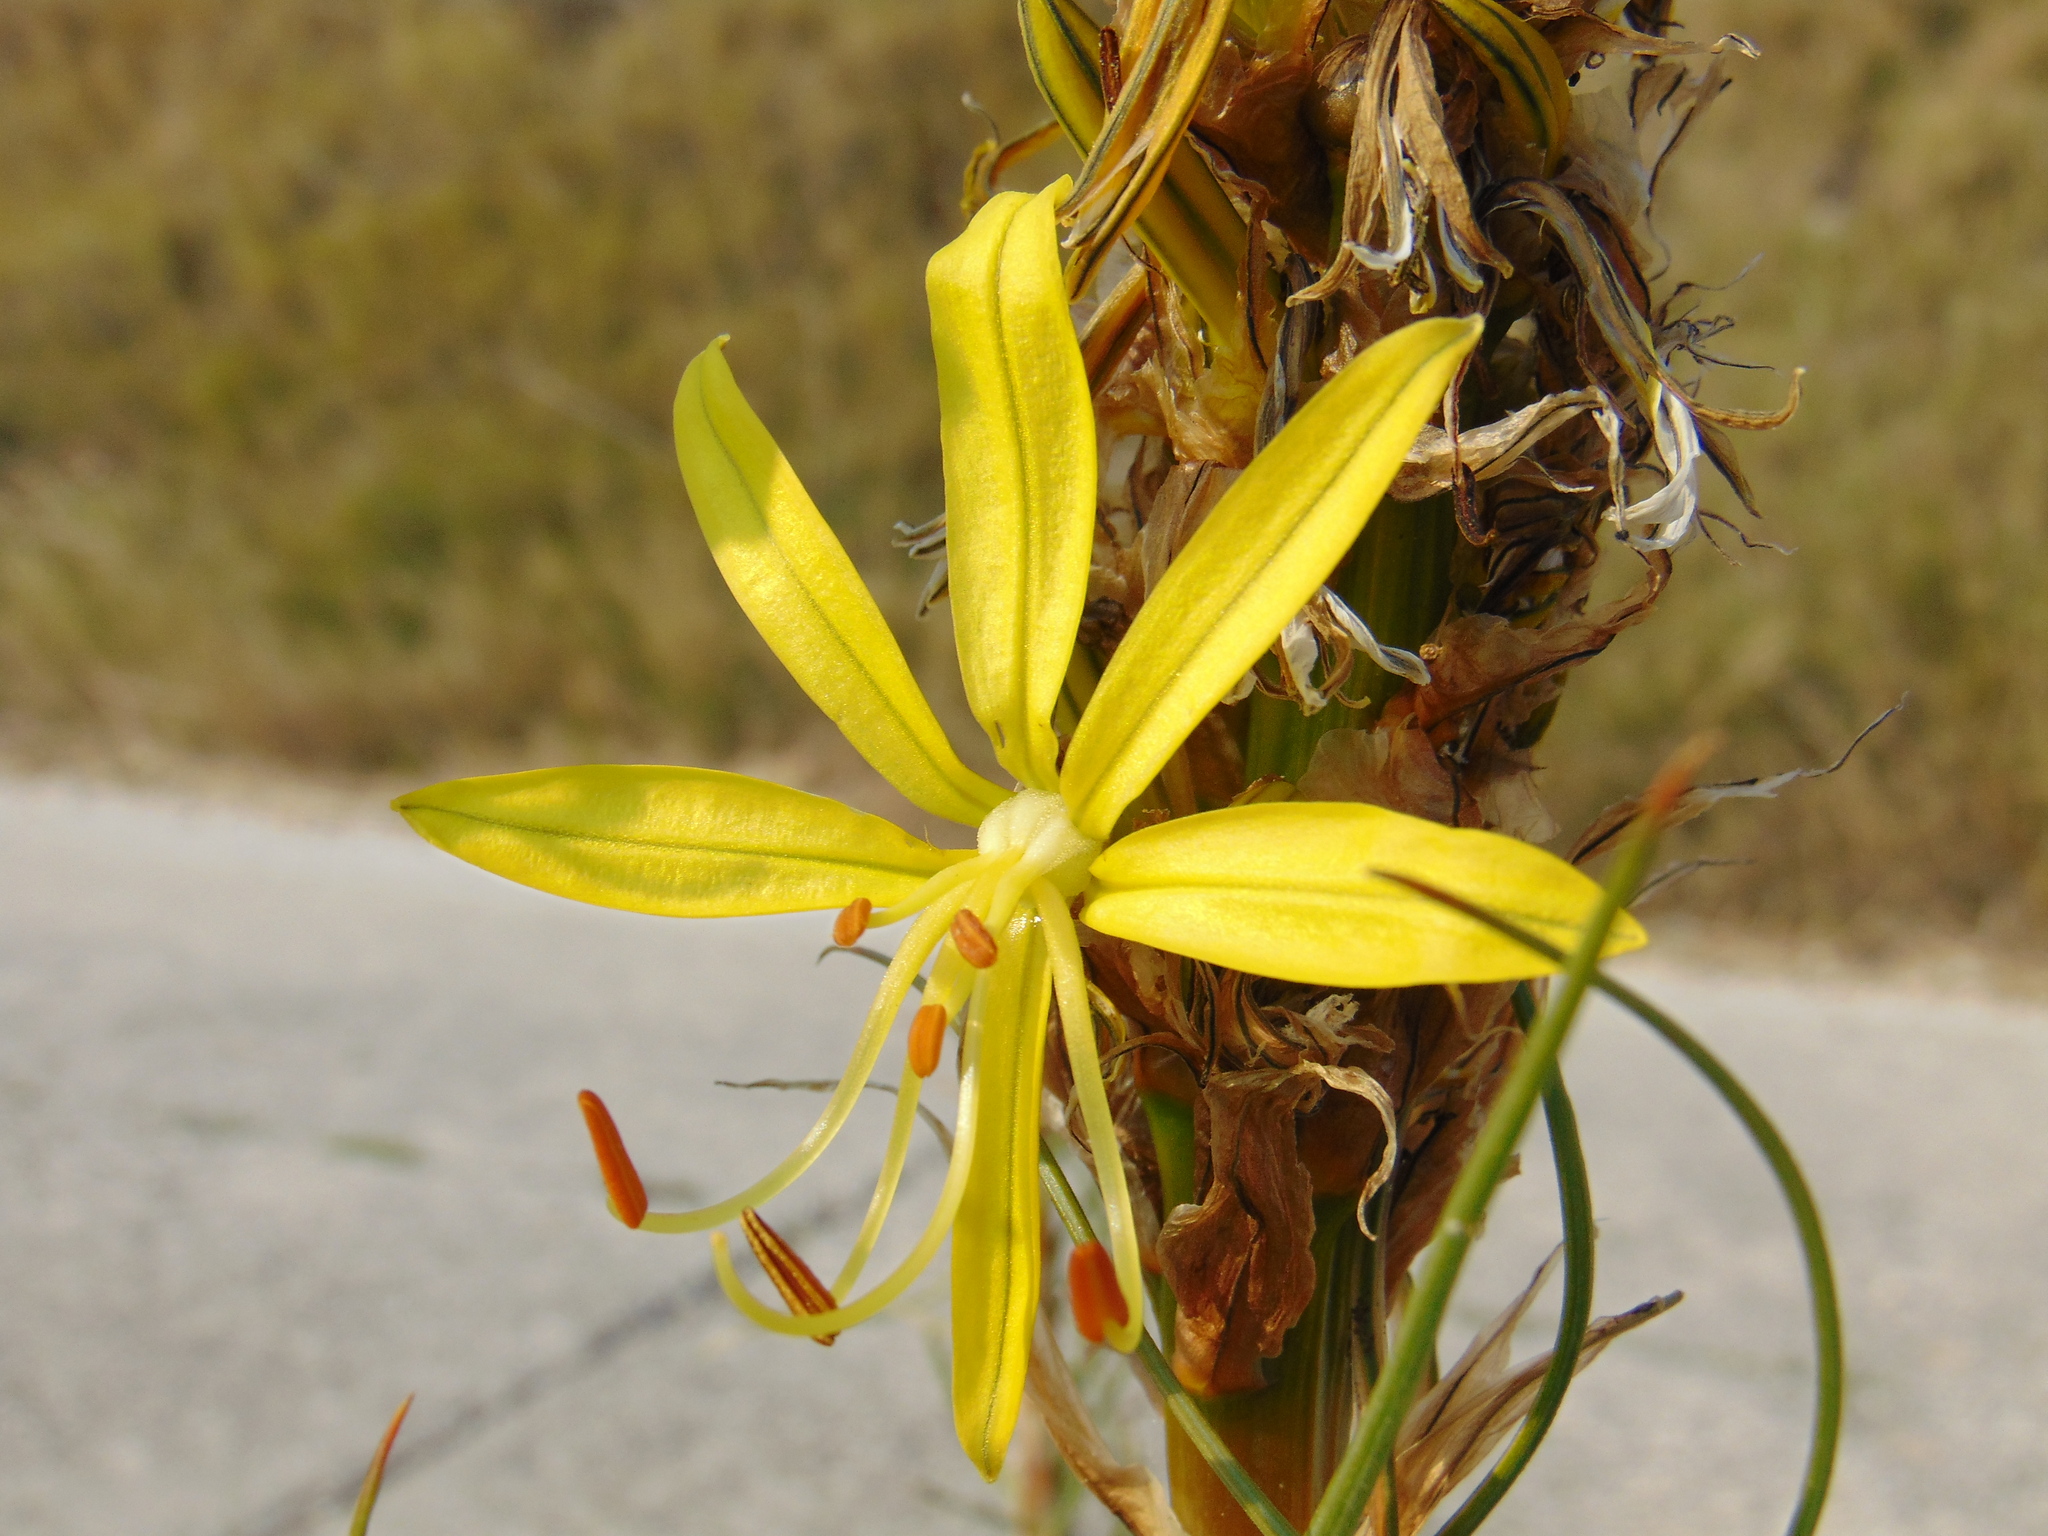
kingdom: Plantae
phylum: Tracheophyta
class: Liliopsida
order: Asparagales
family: Asphodelaceae
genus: Asphodeline
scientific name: Asphodeline lutea
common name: Yellow asphodel
